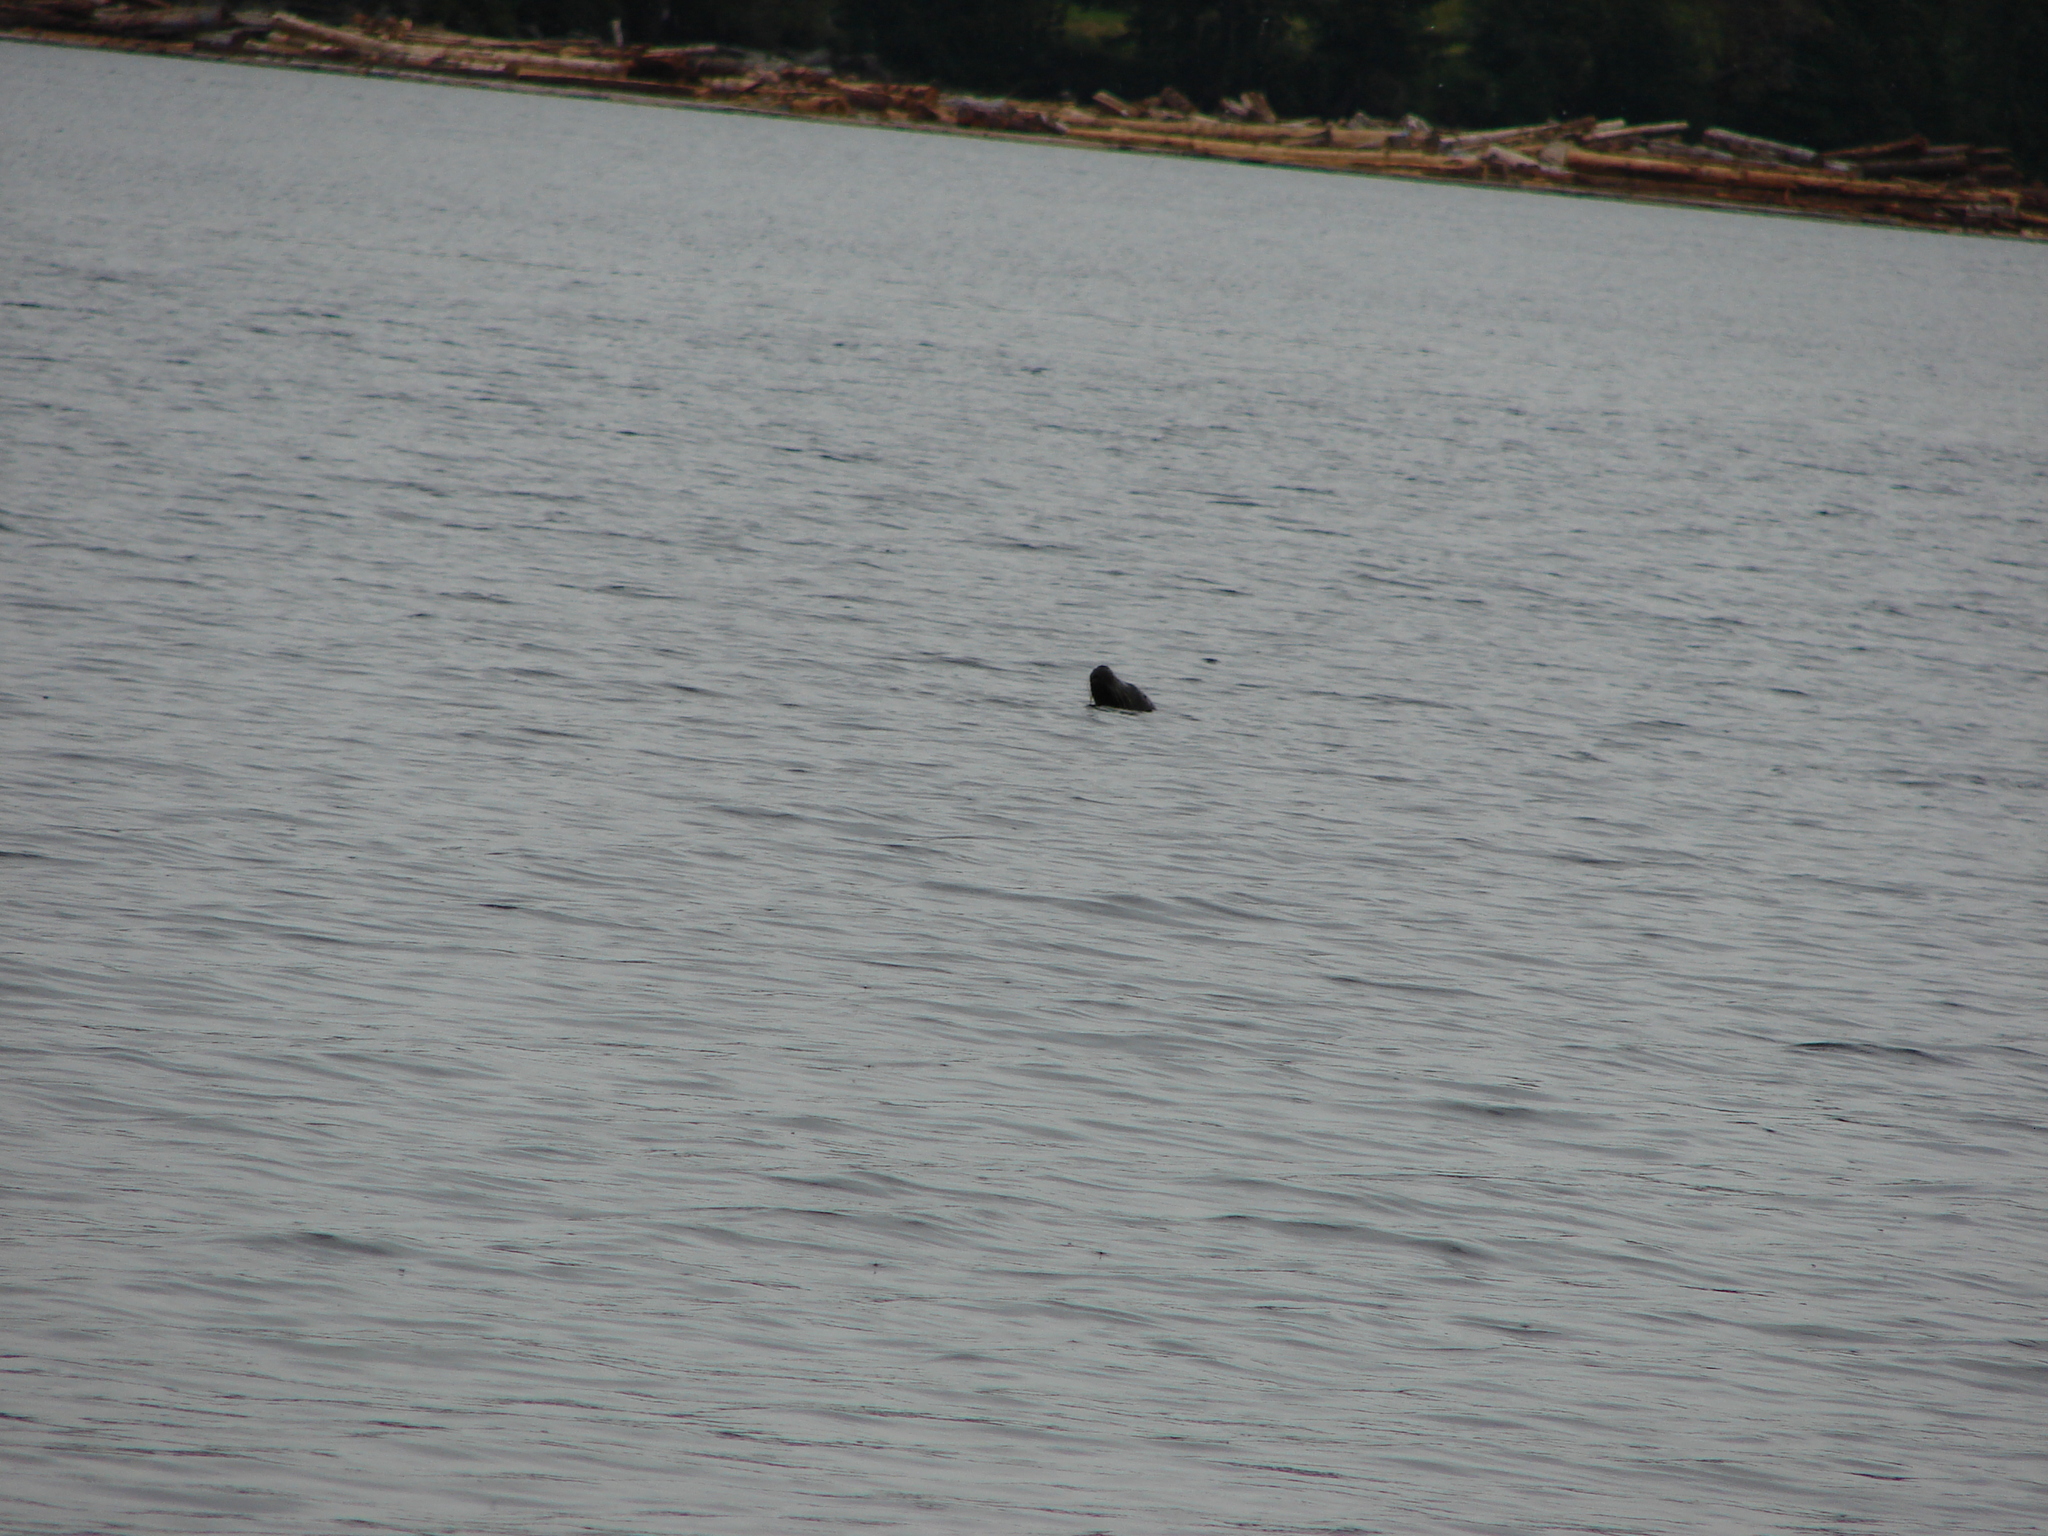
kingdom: Animalia
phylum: Chordata
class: Mammalia
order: Carnivora
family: Phocidae
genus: Phoca
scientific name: Phoca vitulina
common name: Harbor seal
